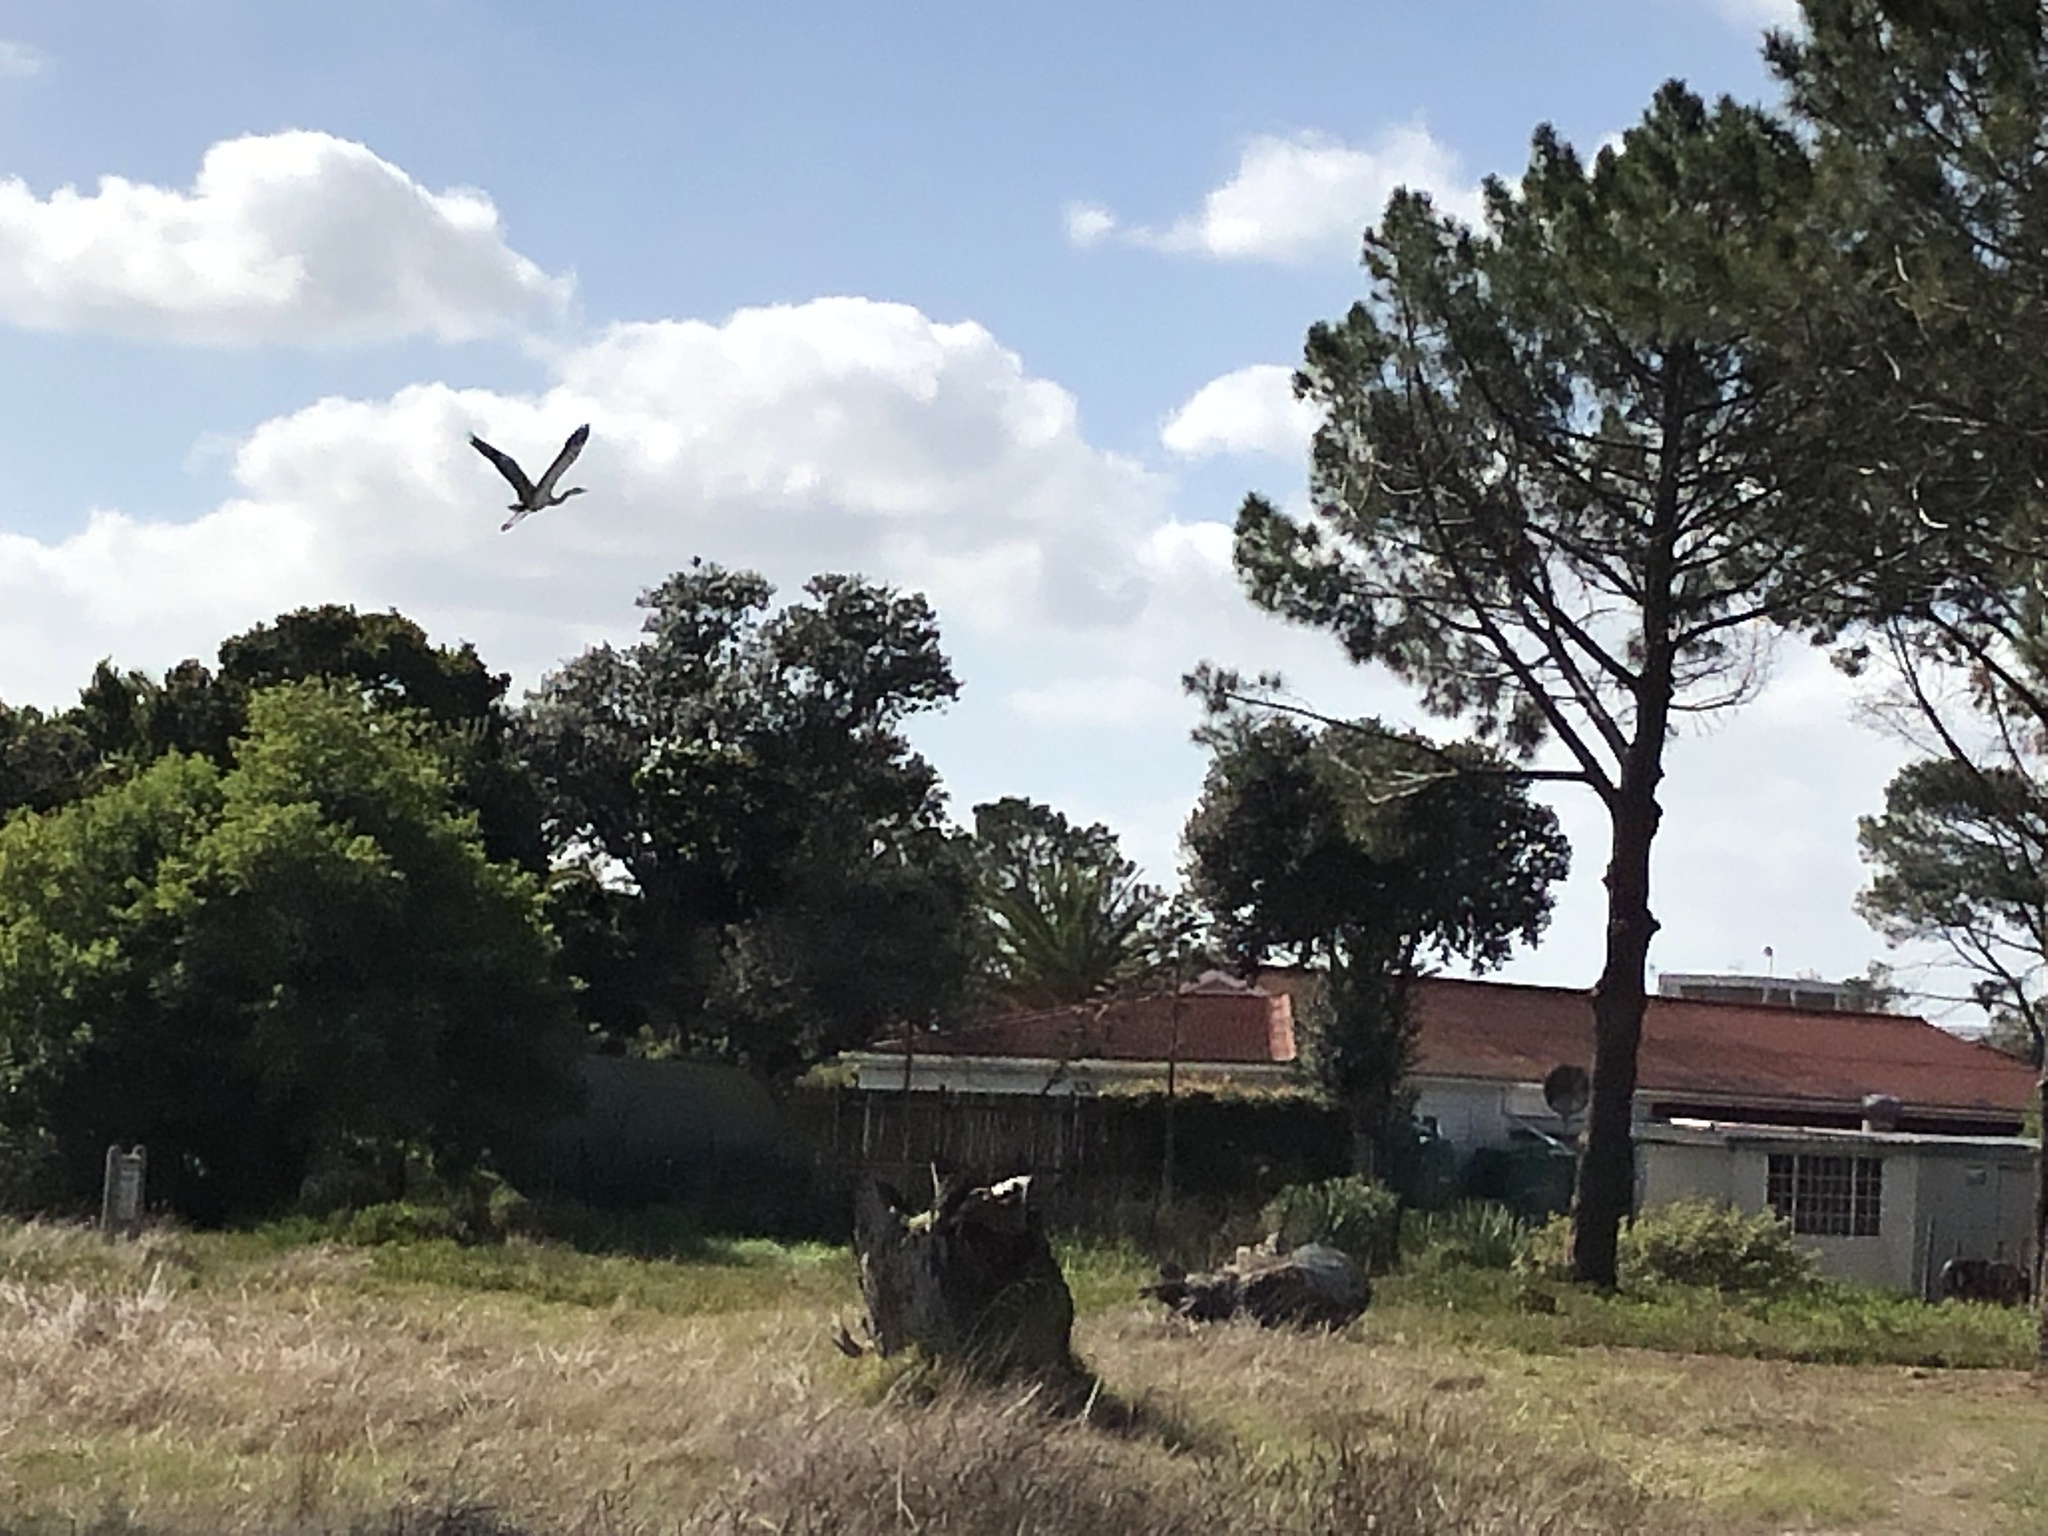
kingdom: Animalia
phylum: Chordata
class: Aves
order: Pelecaniformes
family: Ardeidae
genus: Ardea
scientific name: Ardea melanocephala
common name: Black-headed heron
